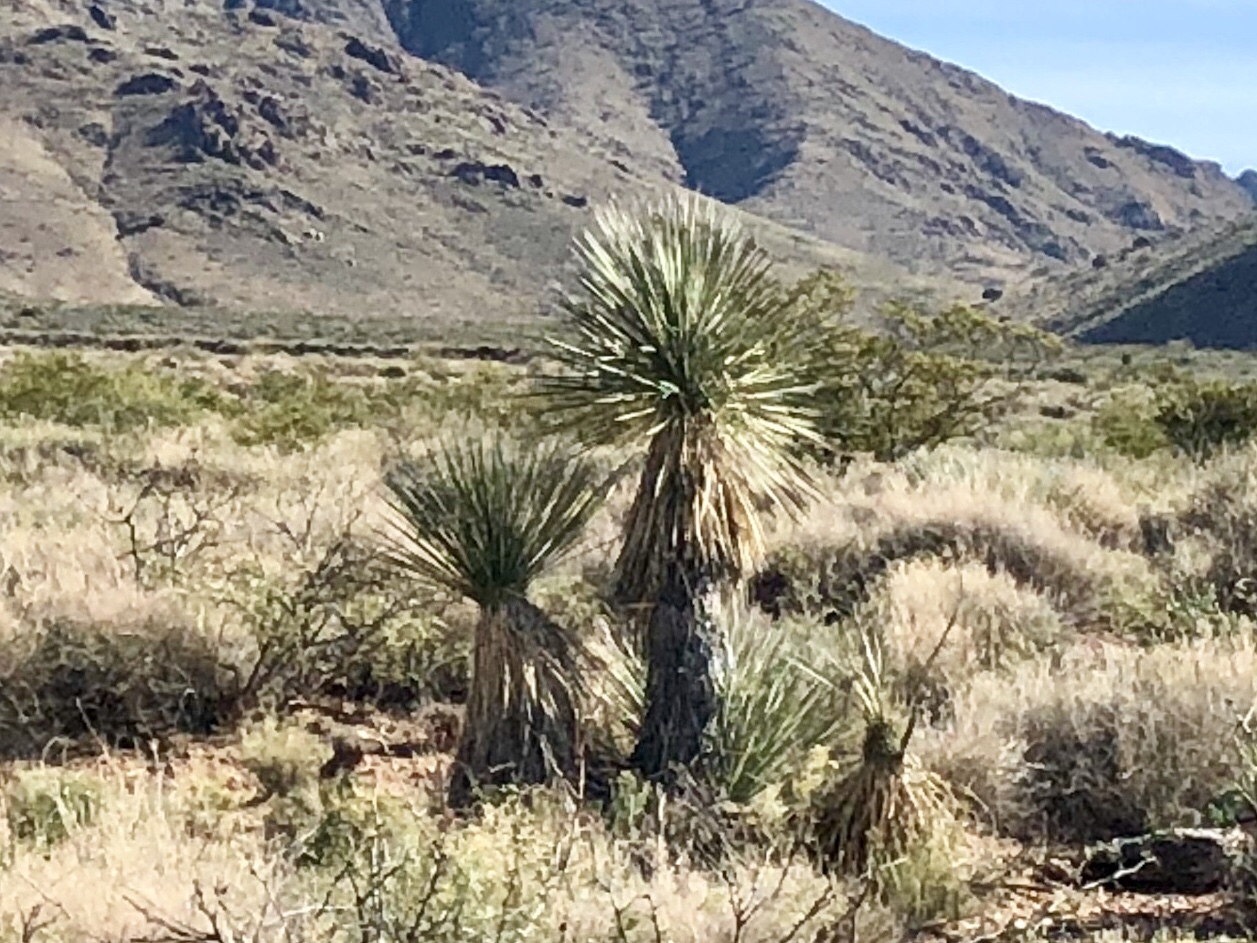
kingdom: Plantae
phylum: Tracheophyta
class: Liliopsida
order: Asparagales
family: Asparagaceae
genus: Yucca
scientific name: Yucca elata
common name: Palmella
